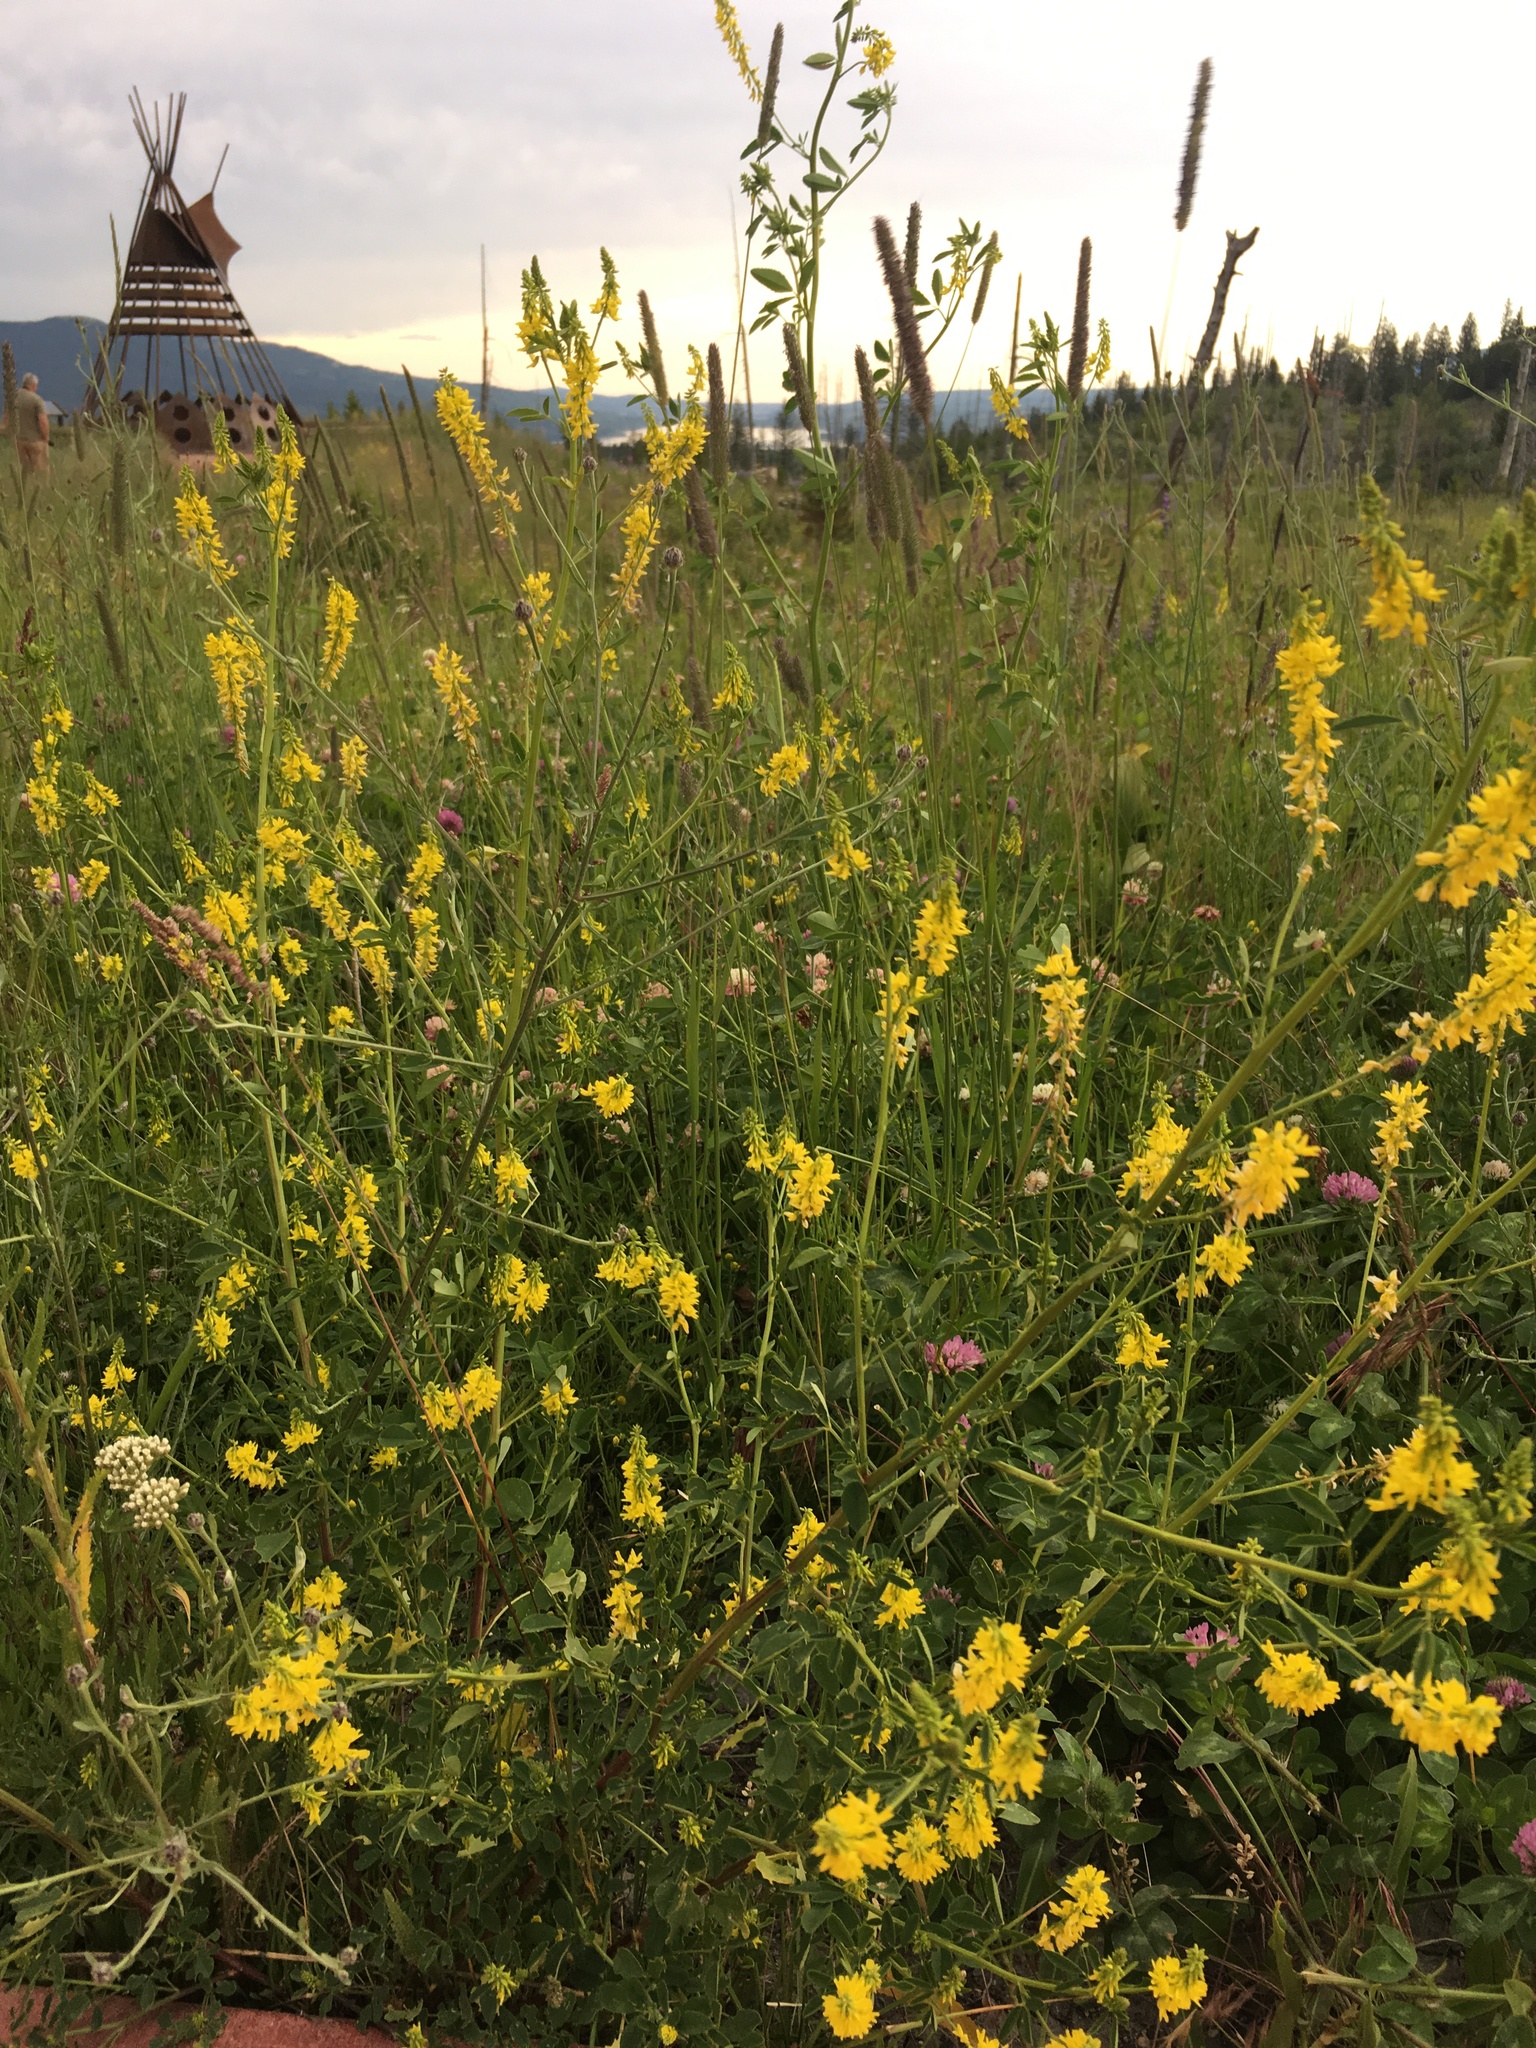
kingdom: Plantae
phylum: Tracheophyta
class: Magnoliopsida
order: Fabales
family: Fabaceae
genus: Melilotus
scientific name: Melilotus officinalis
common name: Sweetclover
